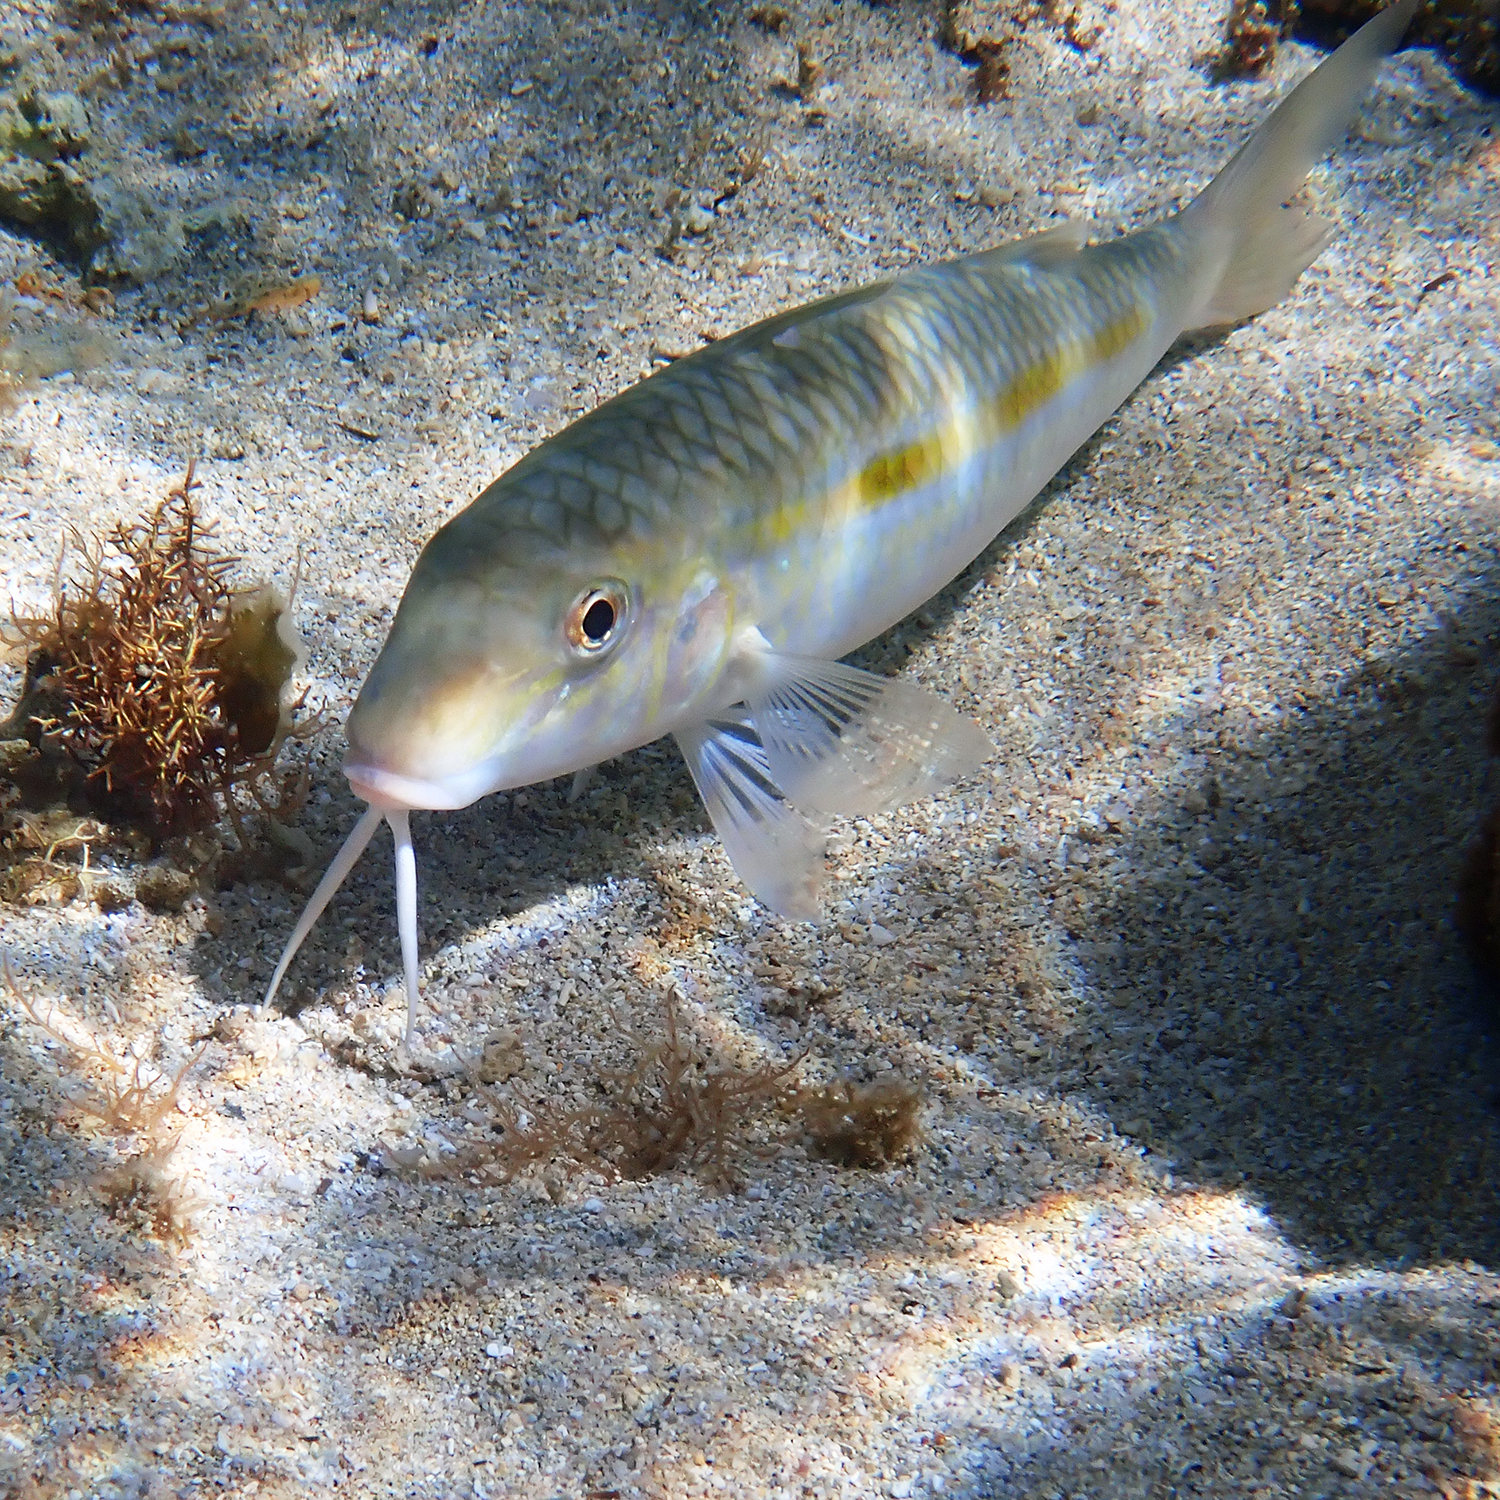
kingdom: Animalia
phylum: Chordata
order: Perciformes
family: Mullidae
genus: Mulloidichthys
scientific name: Mulloidichthys flavolineatus
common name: Yellowstripe goatfish
